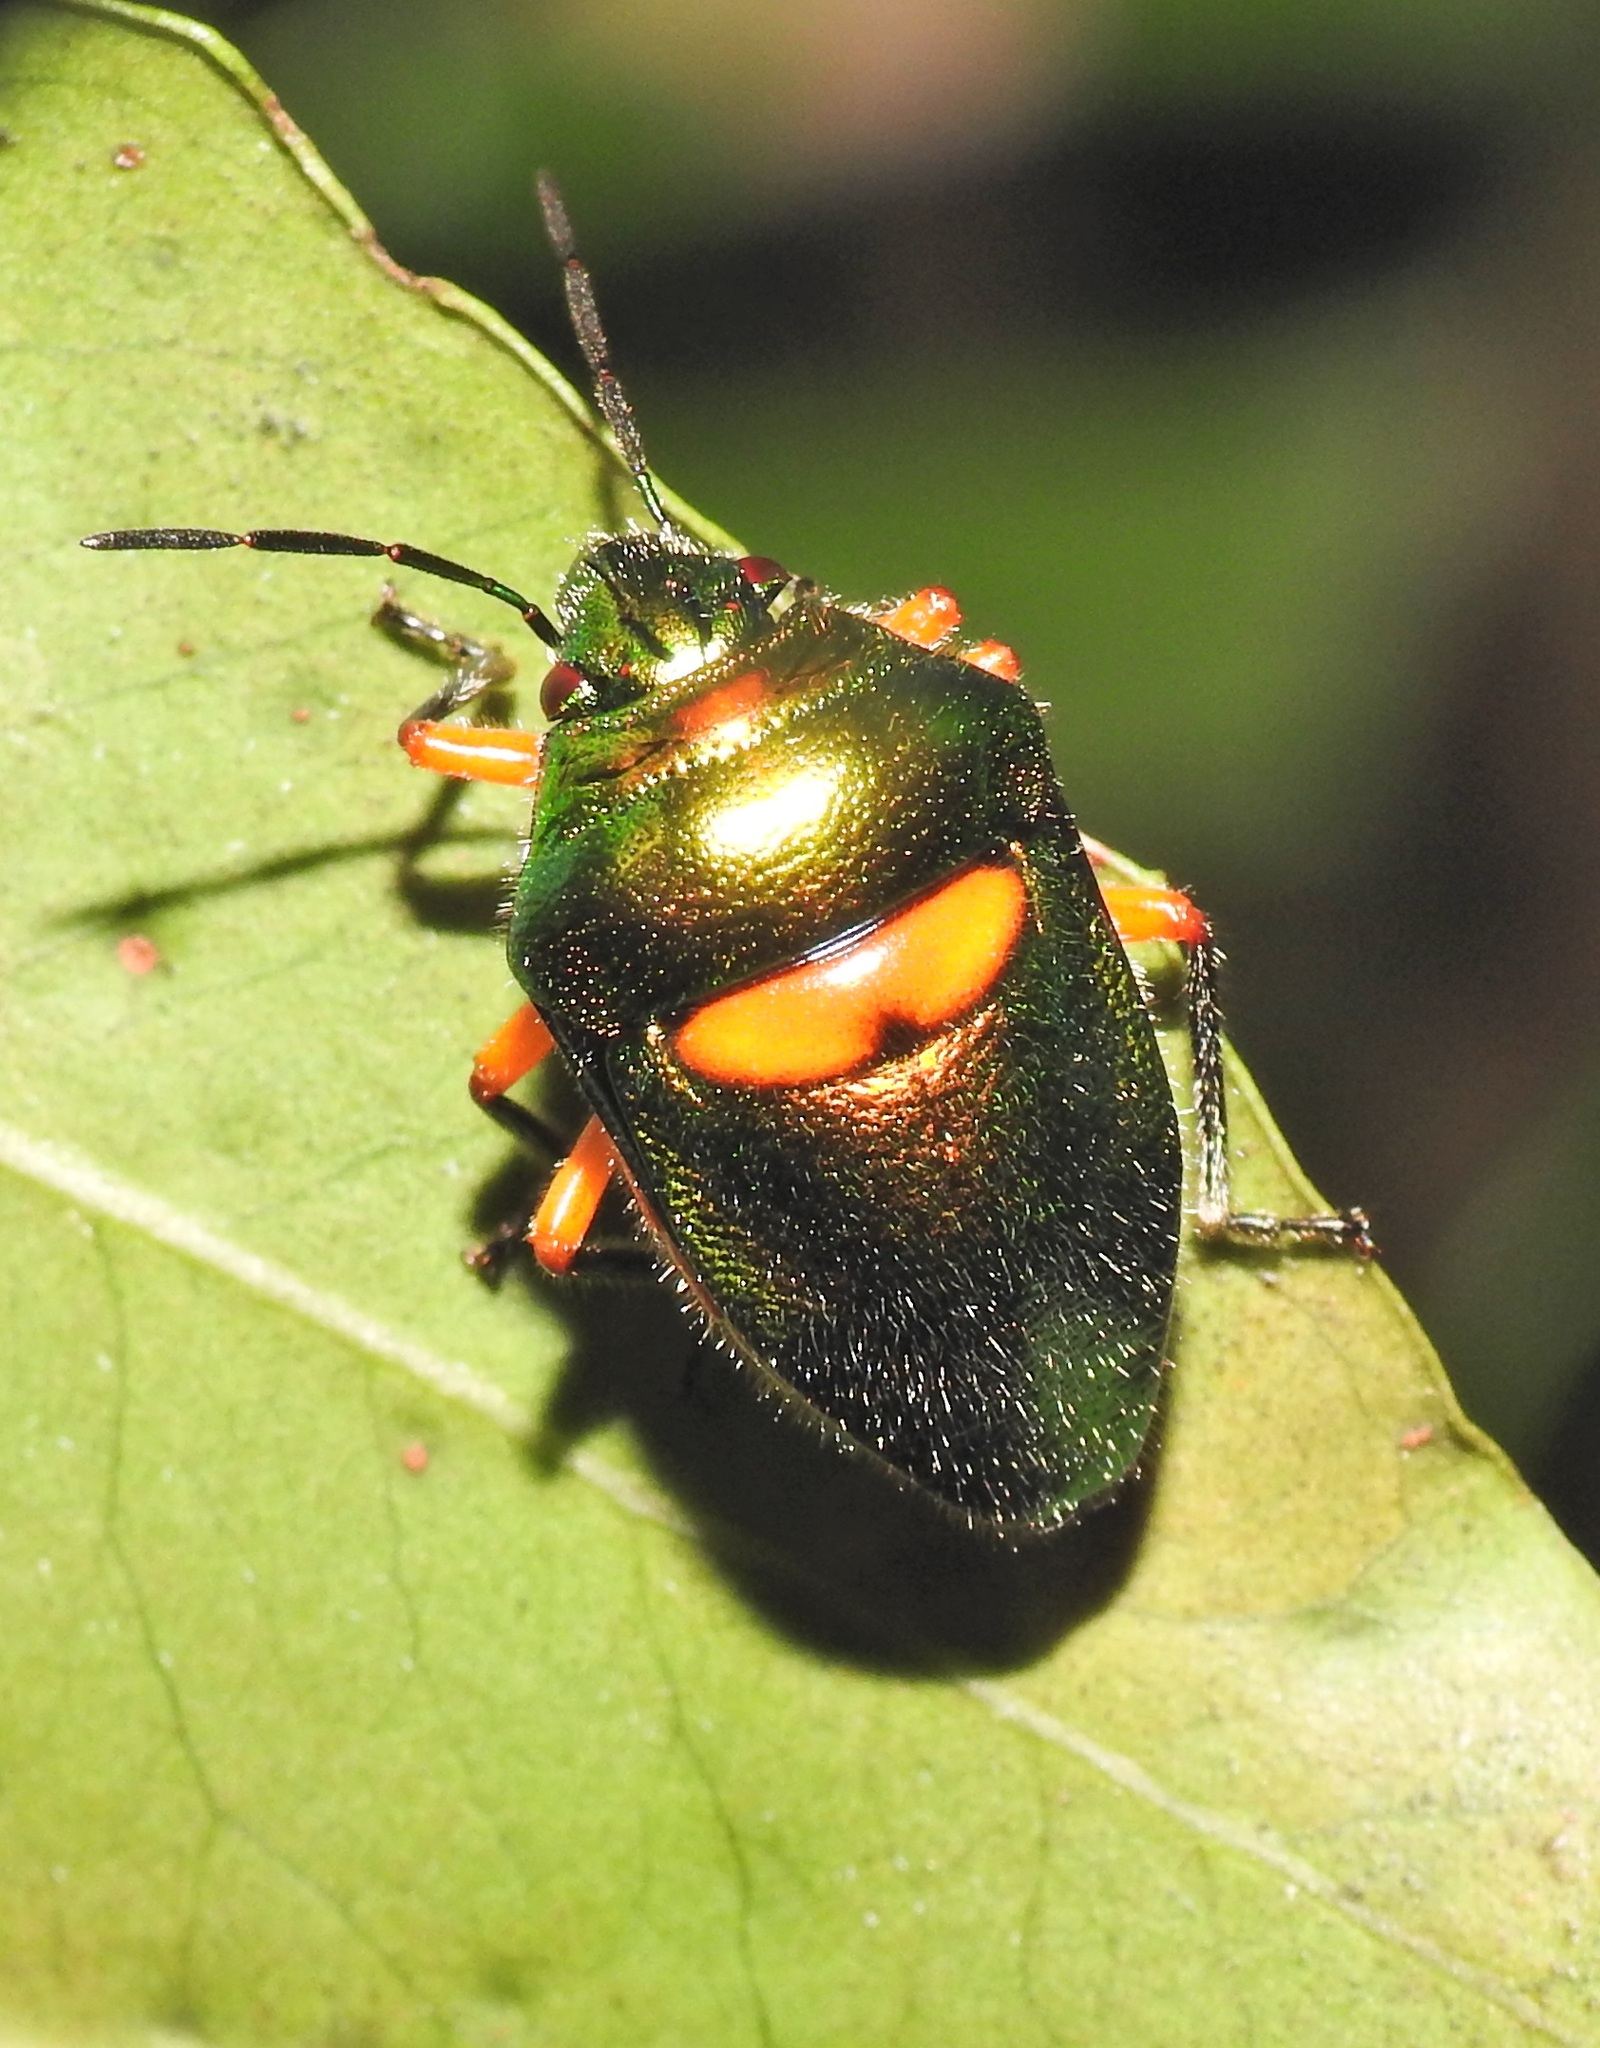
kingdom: Animalia
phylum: Arthropoda
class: Insecta
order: Hemiptera
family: Scutelleridae
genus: Lampromicra
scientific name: Lampromicra senator
